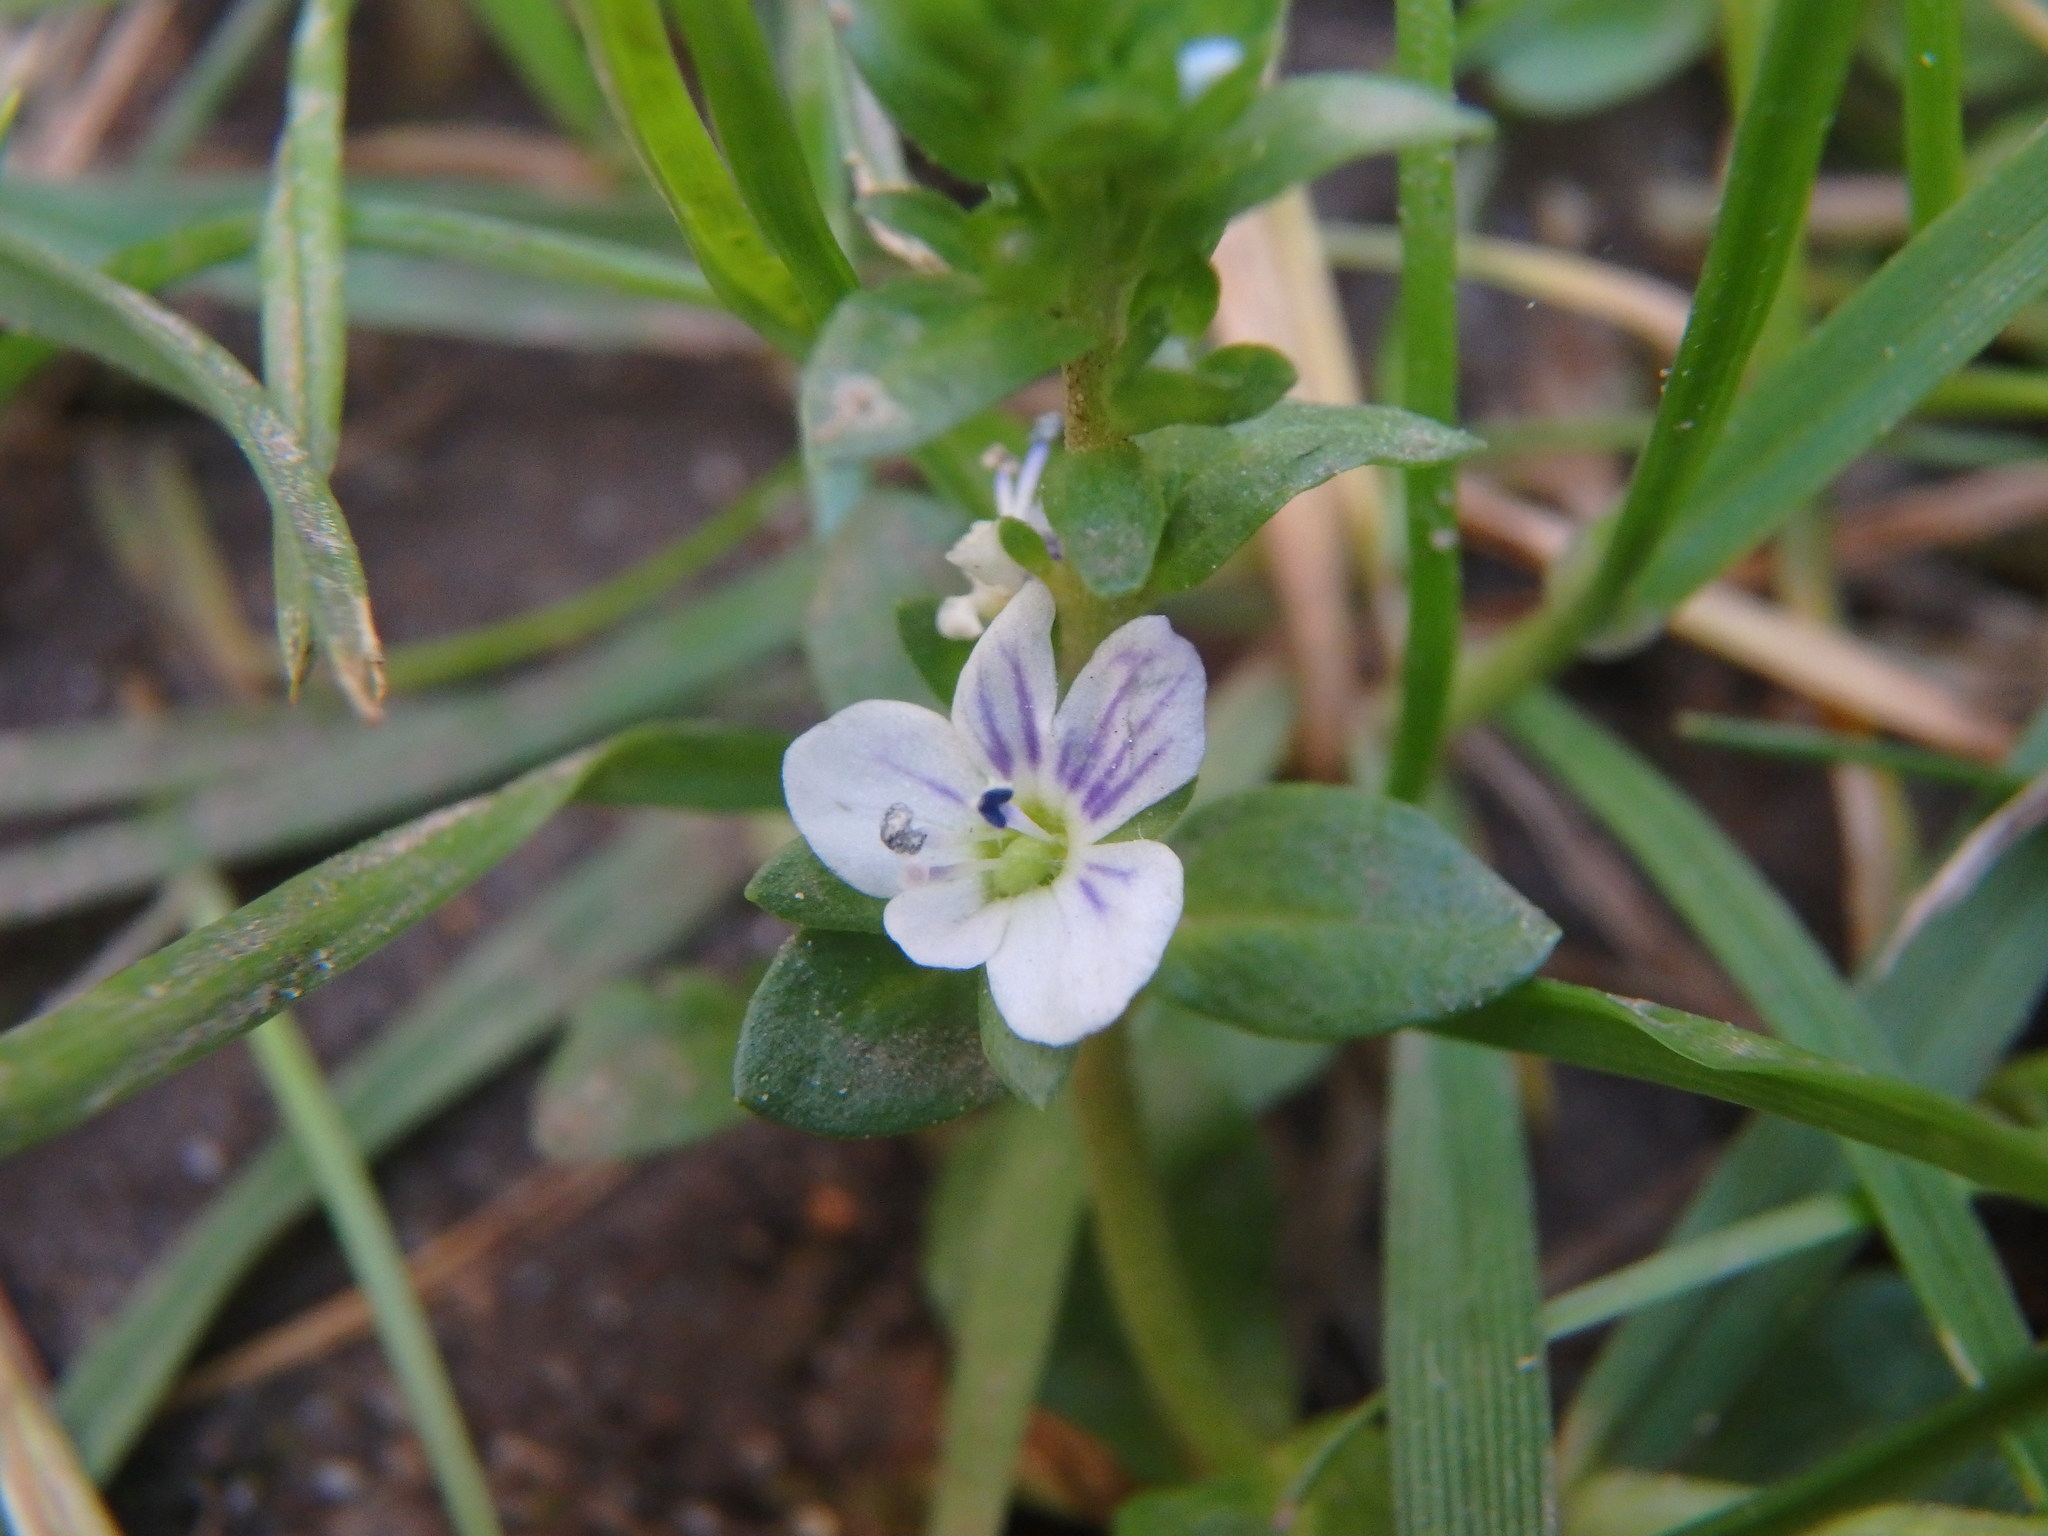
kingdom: Plantae
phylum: Tracheophyta
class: Magnoliopsida
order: Lamiales
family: Plantaginaceae
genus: Veronica
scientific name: Veronica serpyllifolia
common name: Thyme-leaved speedwell
